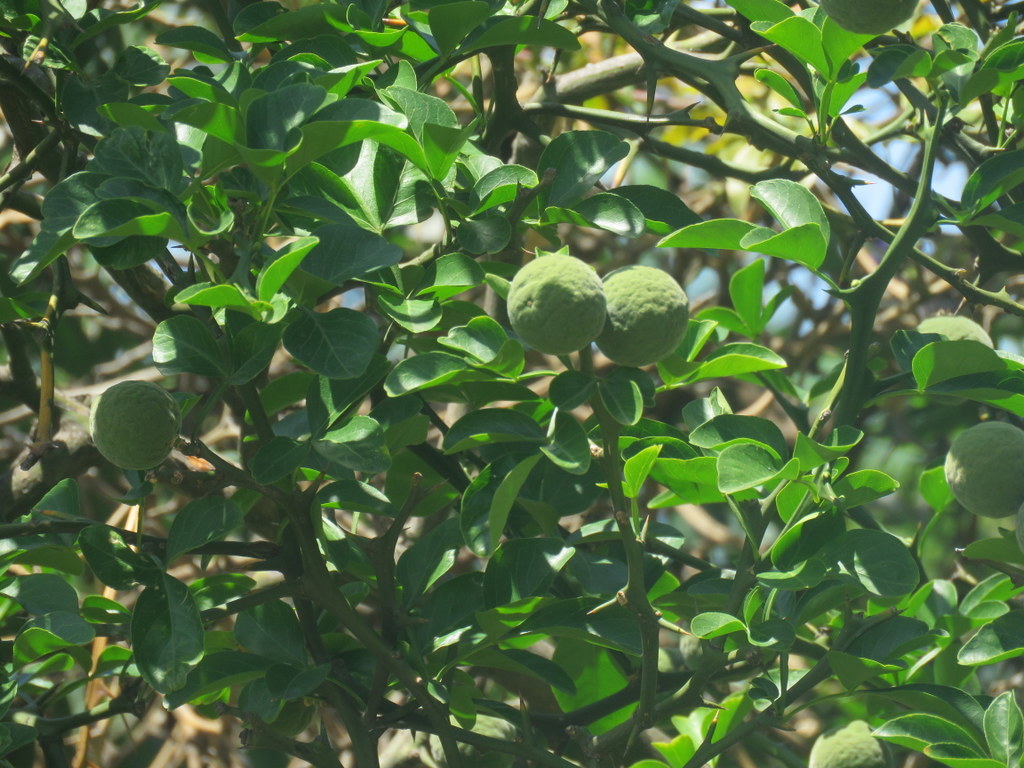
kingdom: Plantae
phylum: Tracheophyta
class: Magnoliopsida
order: Sapindales
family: Rutaceae
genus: Citrus
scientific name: Citrus trifoliata
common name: Japanese bitter-orange
